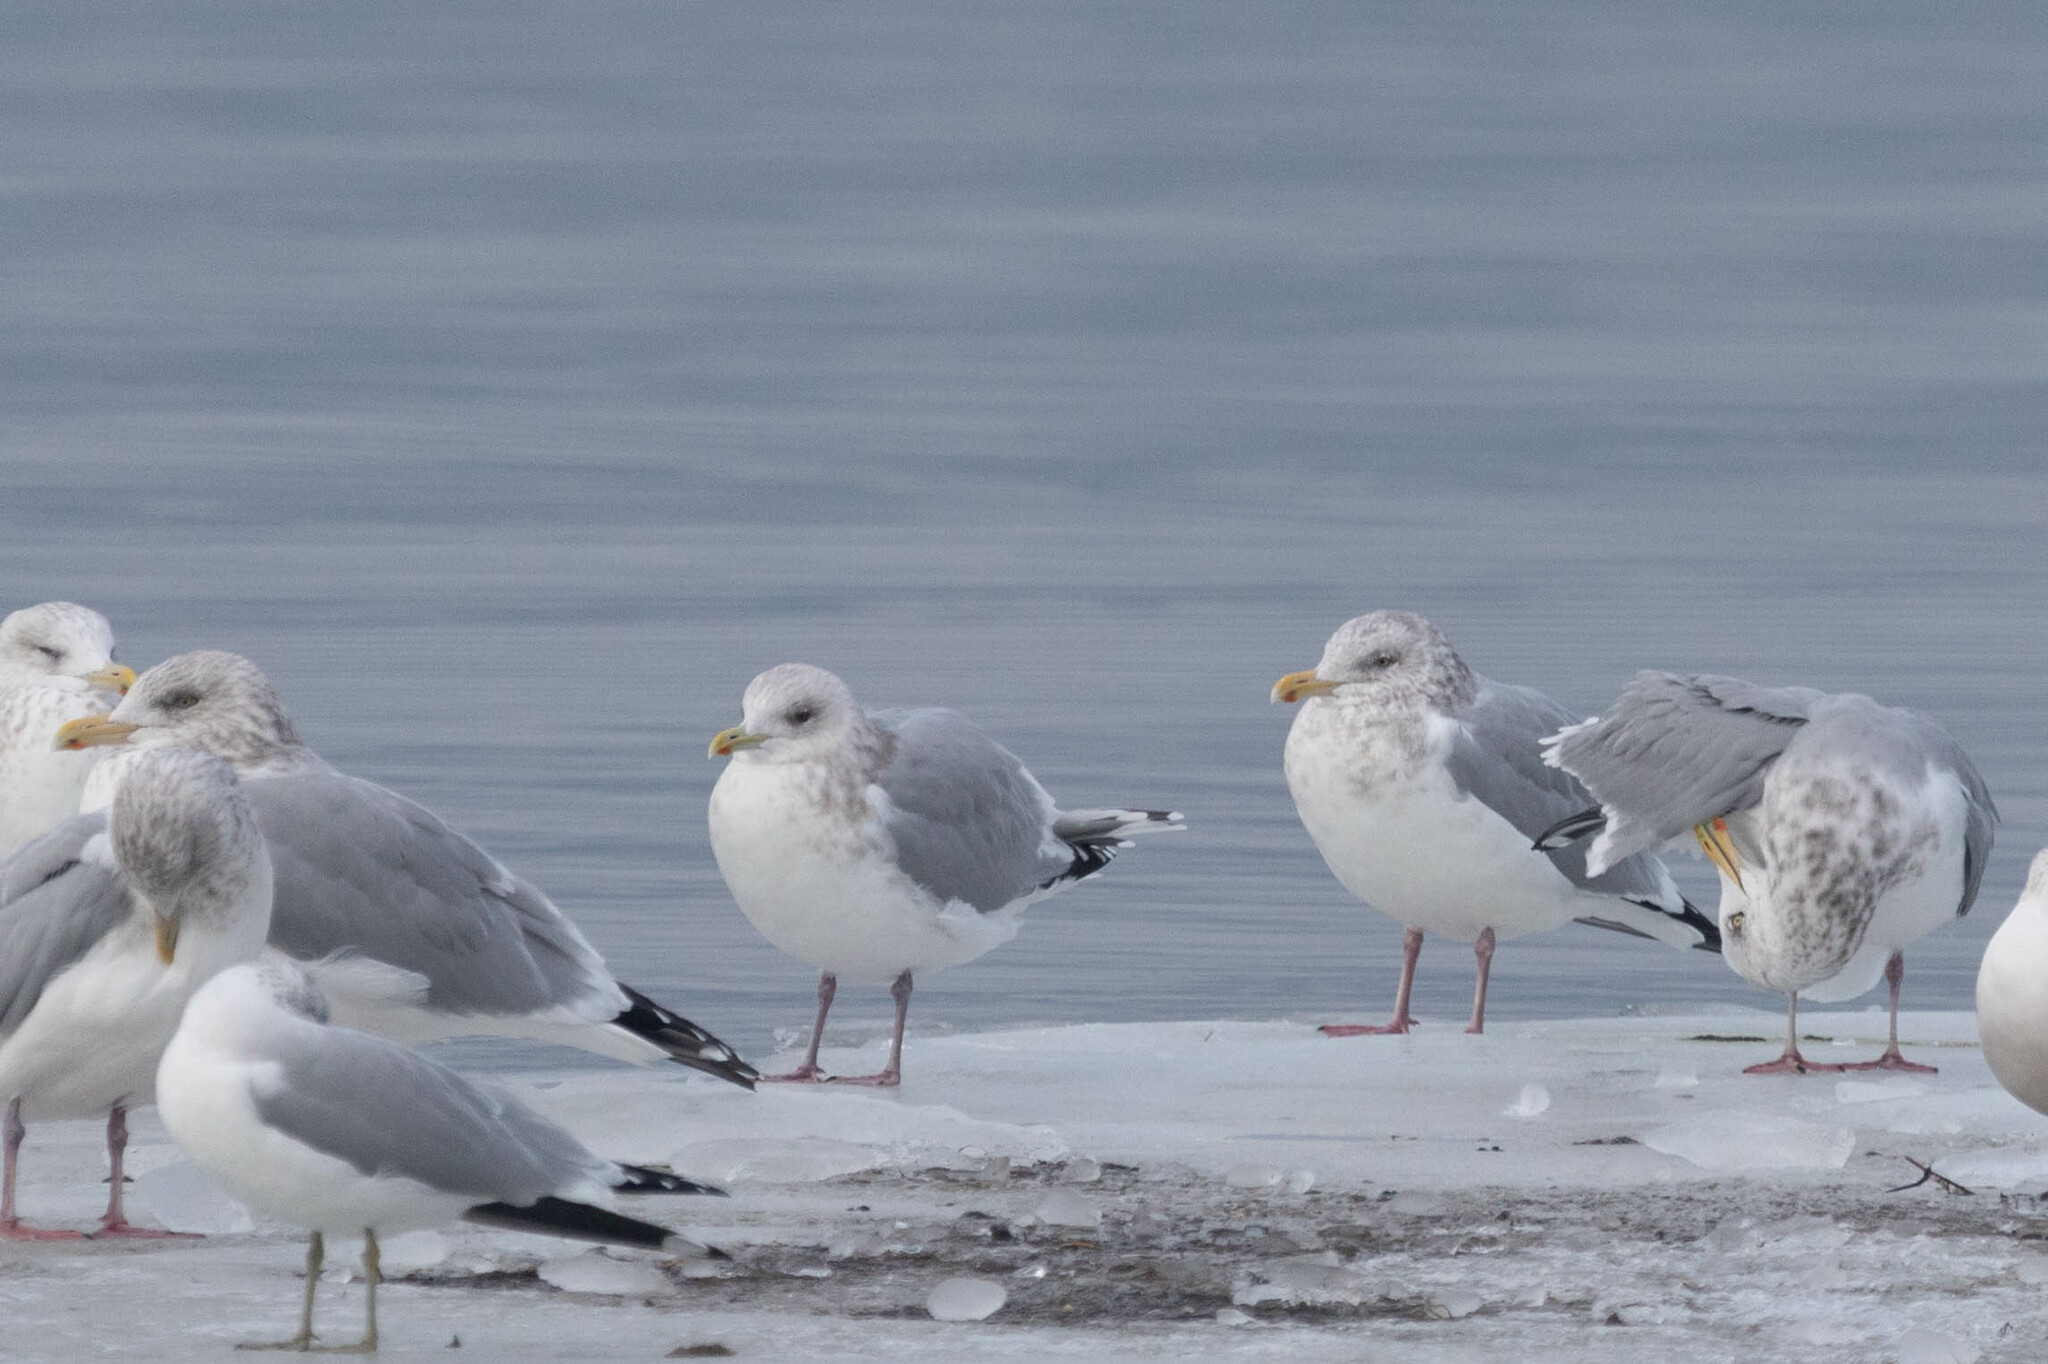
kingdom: Animalia
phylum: Chordata
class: Aves
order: Charadriiformes
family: Laridae
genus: Larus
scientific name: Larus glaucoides
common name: Iceland gull
